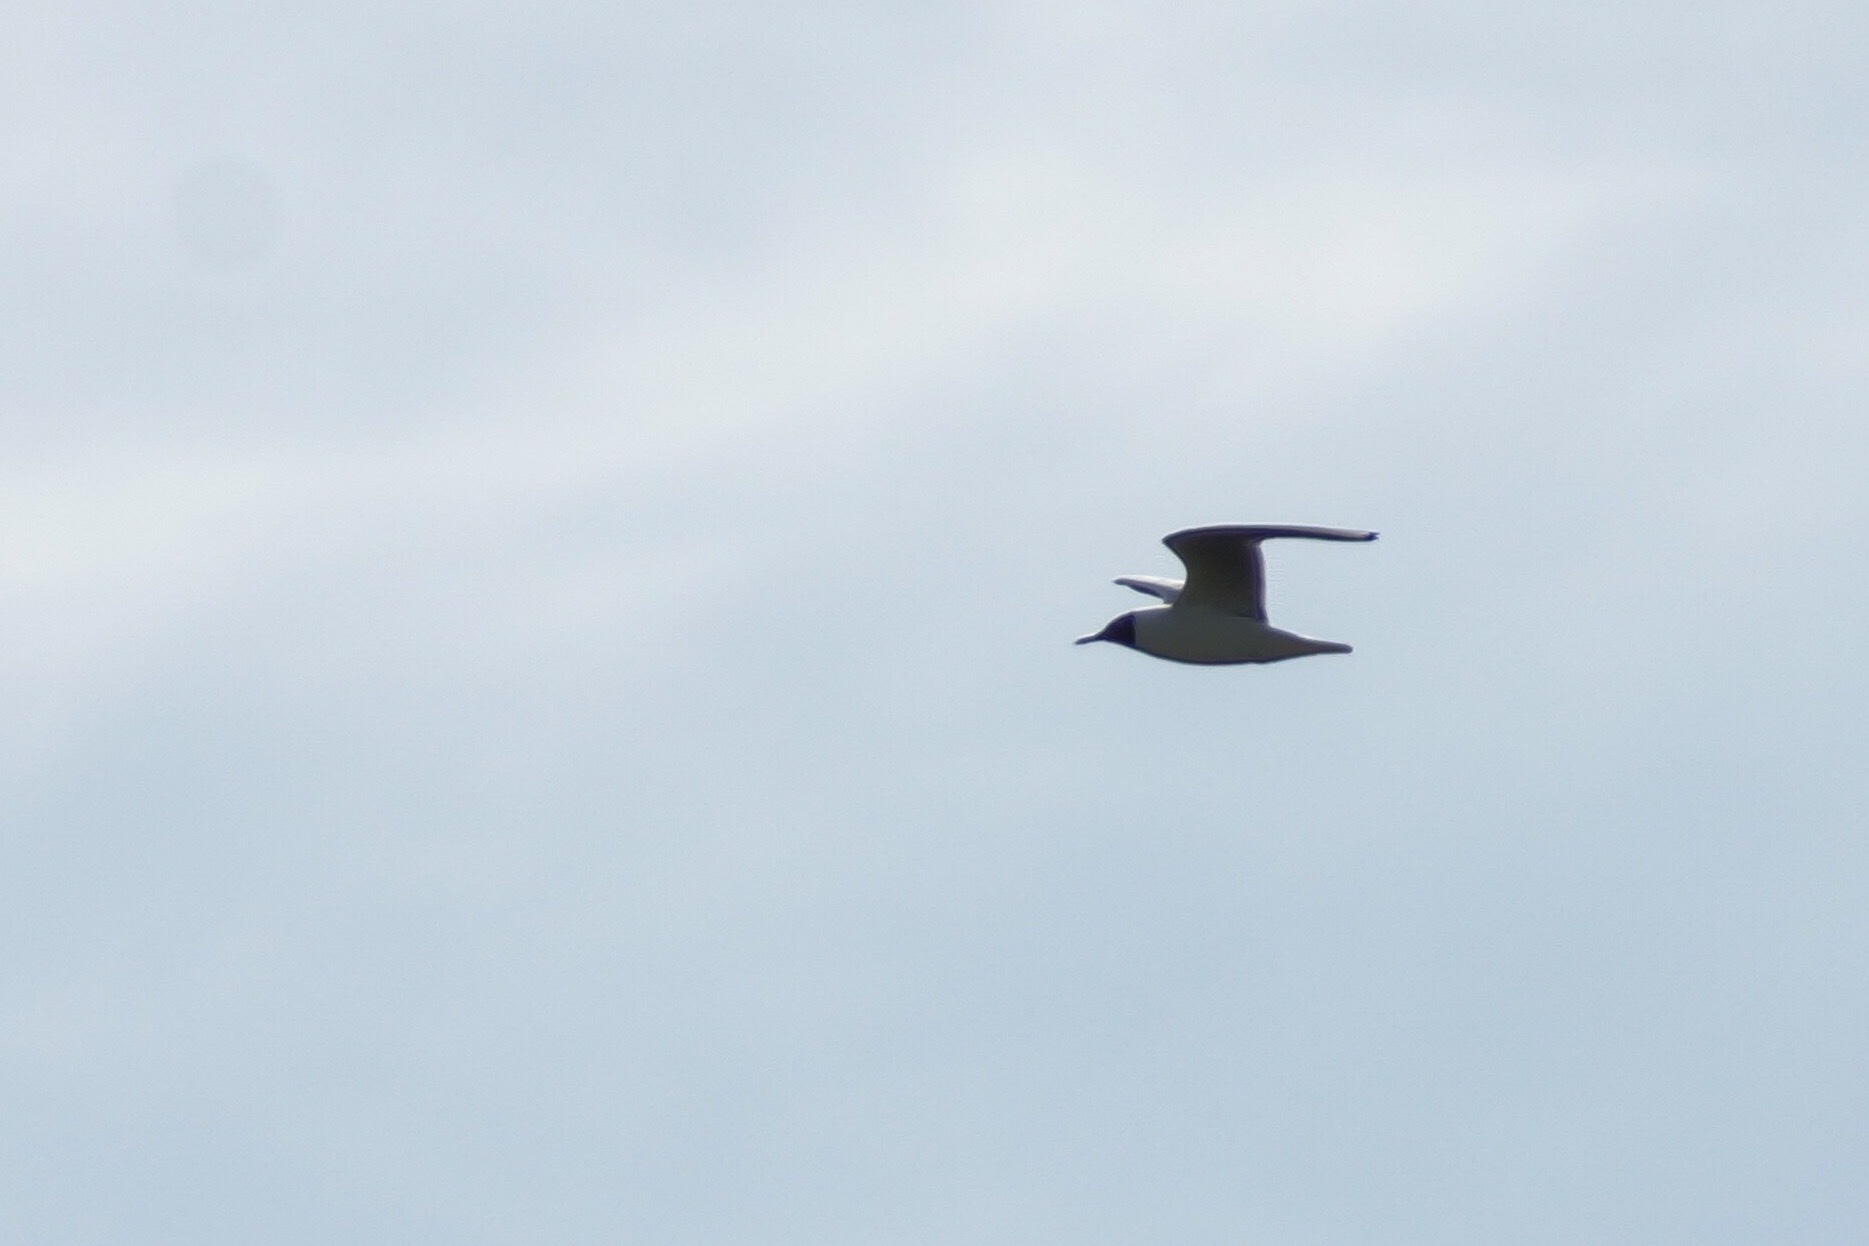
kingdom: Animalia
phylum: Chordata
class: Aves
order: Charadriiformes
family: Laridae
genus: Chroicocephalus
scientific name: Chroicocephalus ridibundus
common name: Black-headed gull
